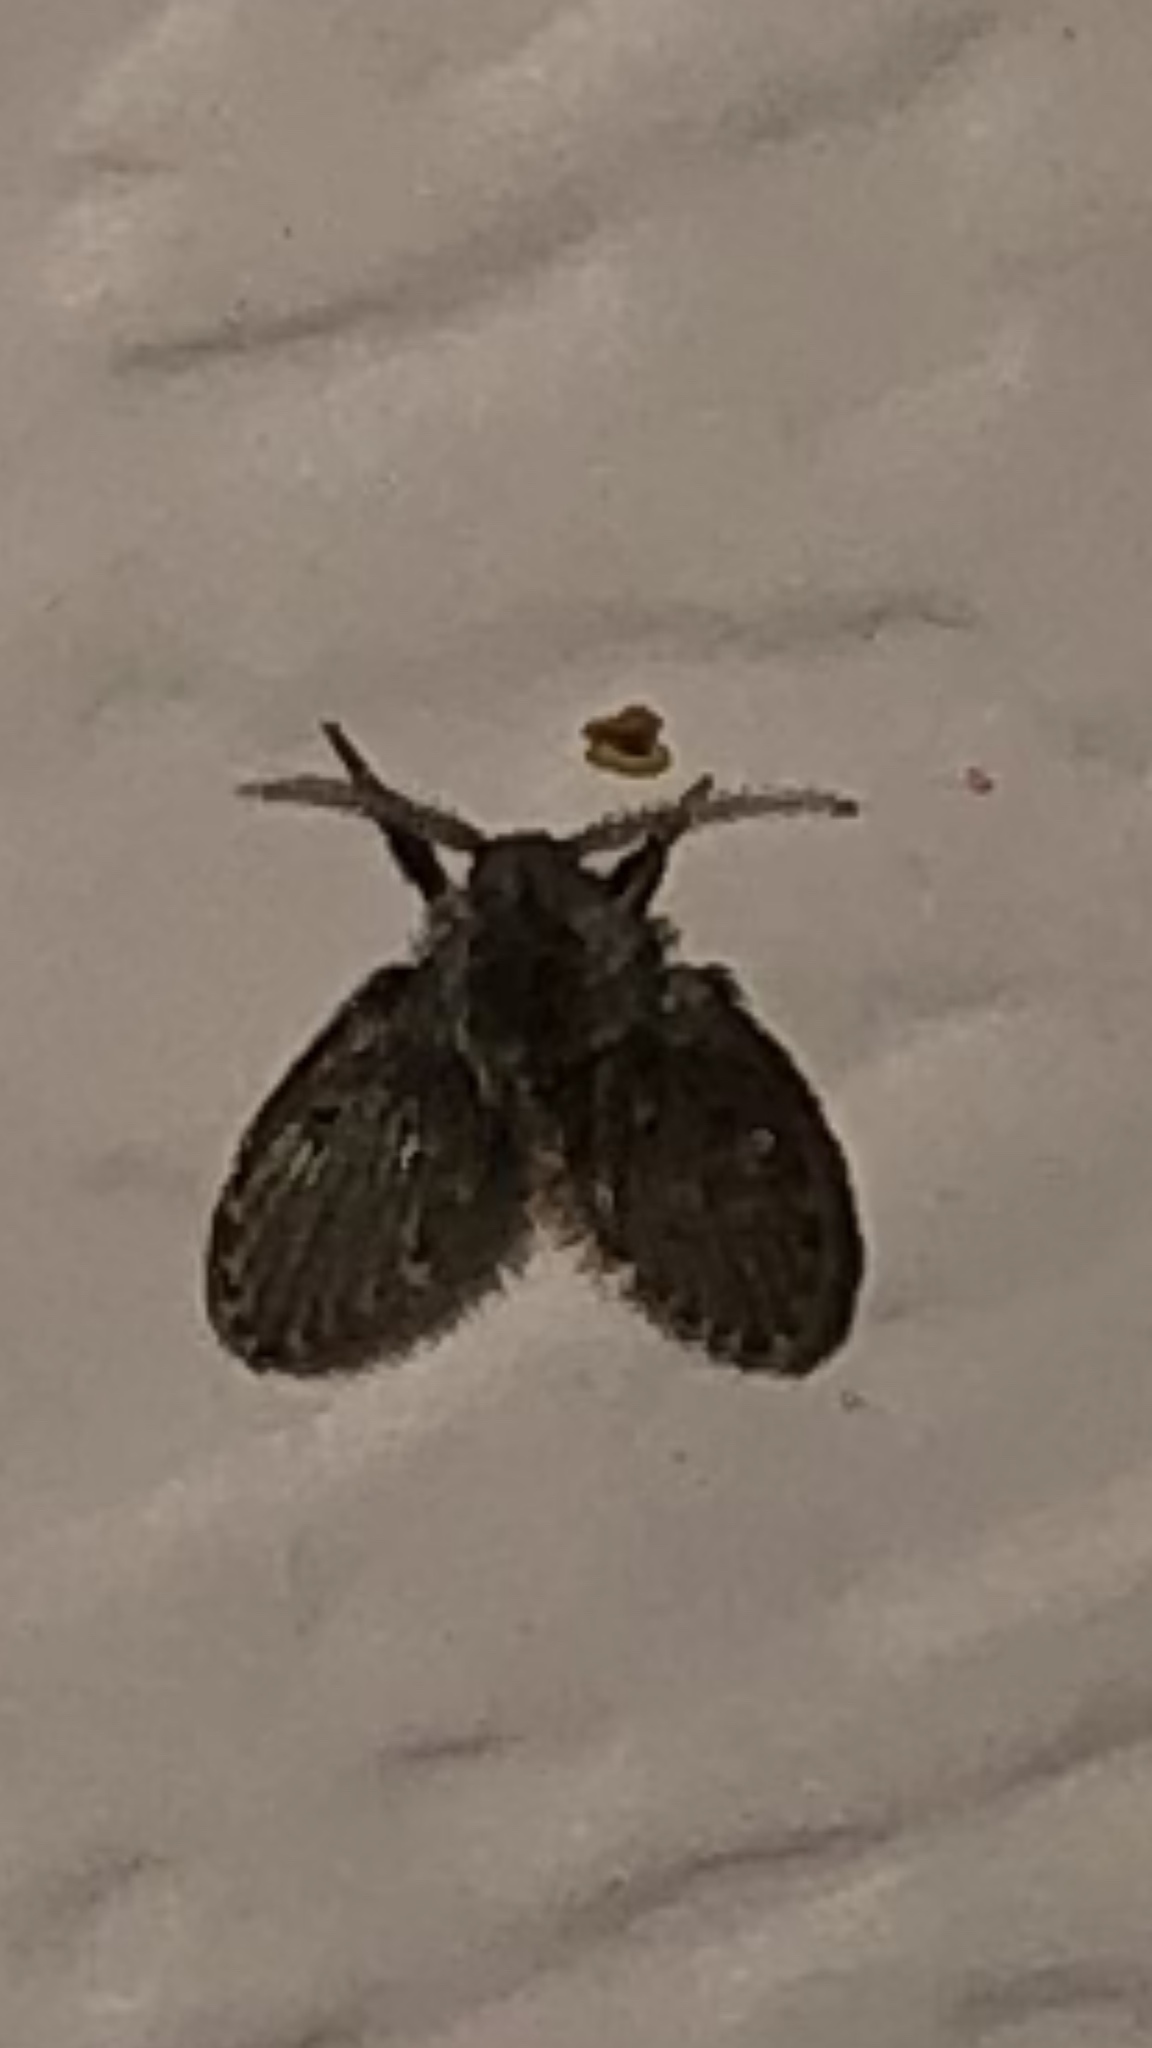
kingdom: Animalia
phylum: Arthropoda
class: Insecta
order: Diptera
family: Psychodidae
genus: Clogmia
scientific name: Clogmia albipunctatus
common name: White-spotted moth fly
